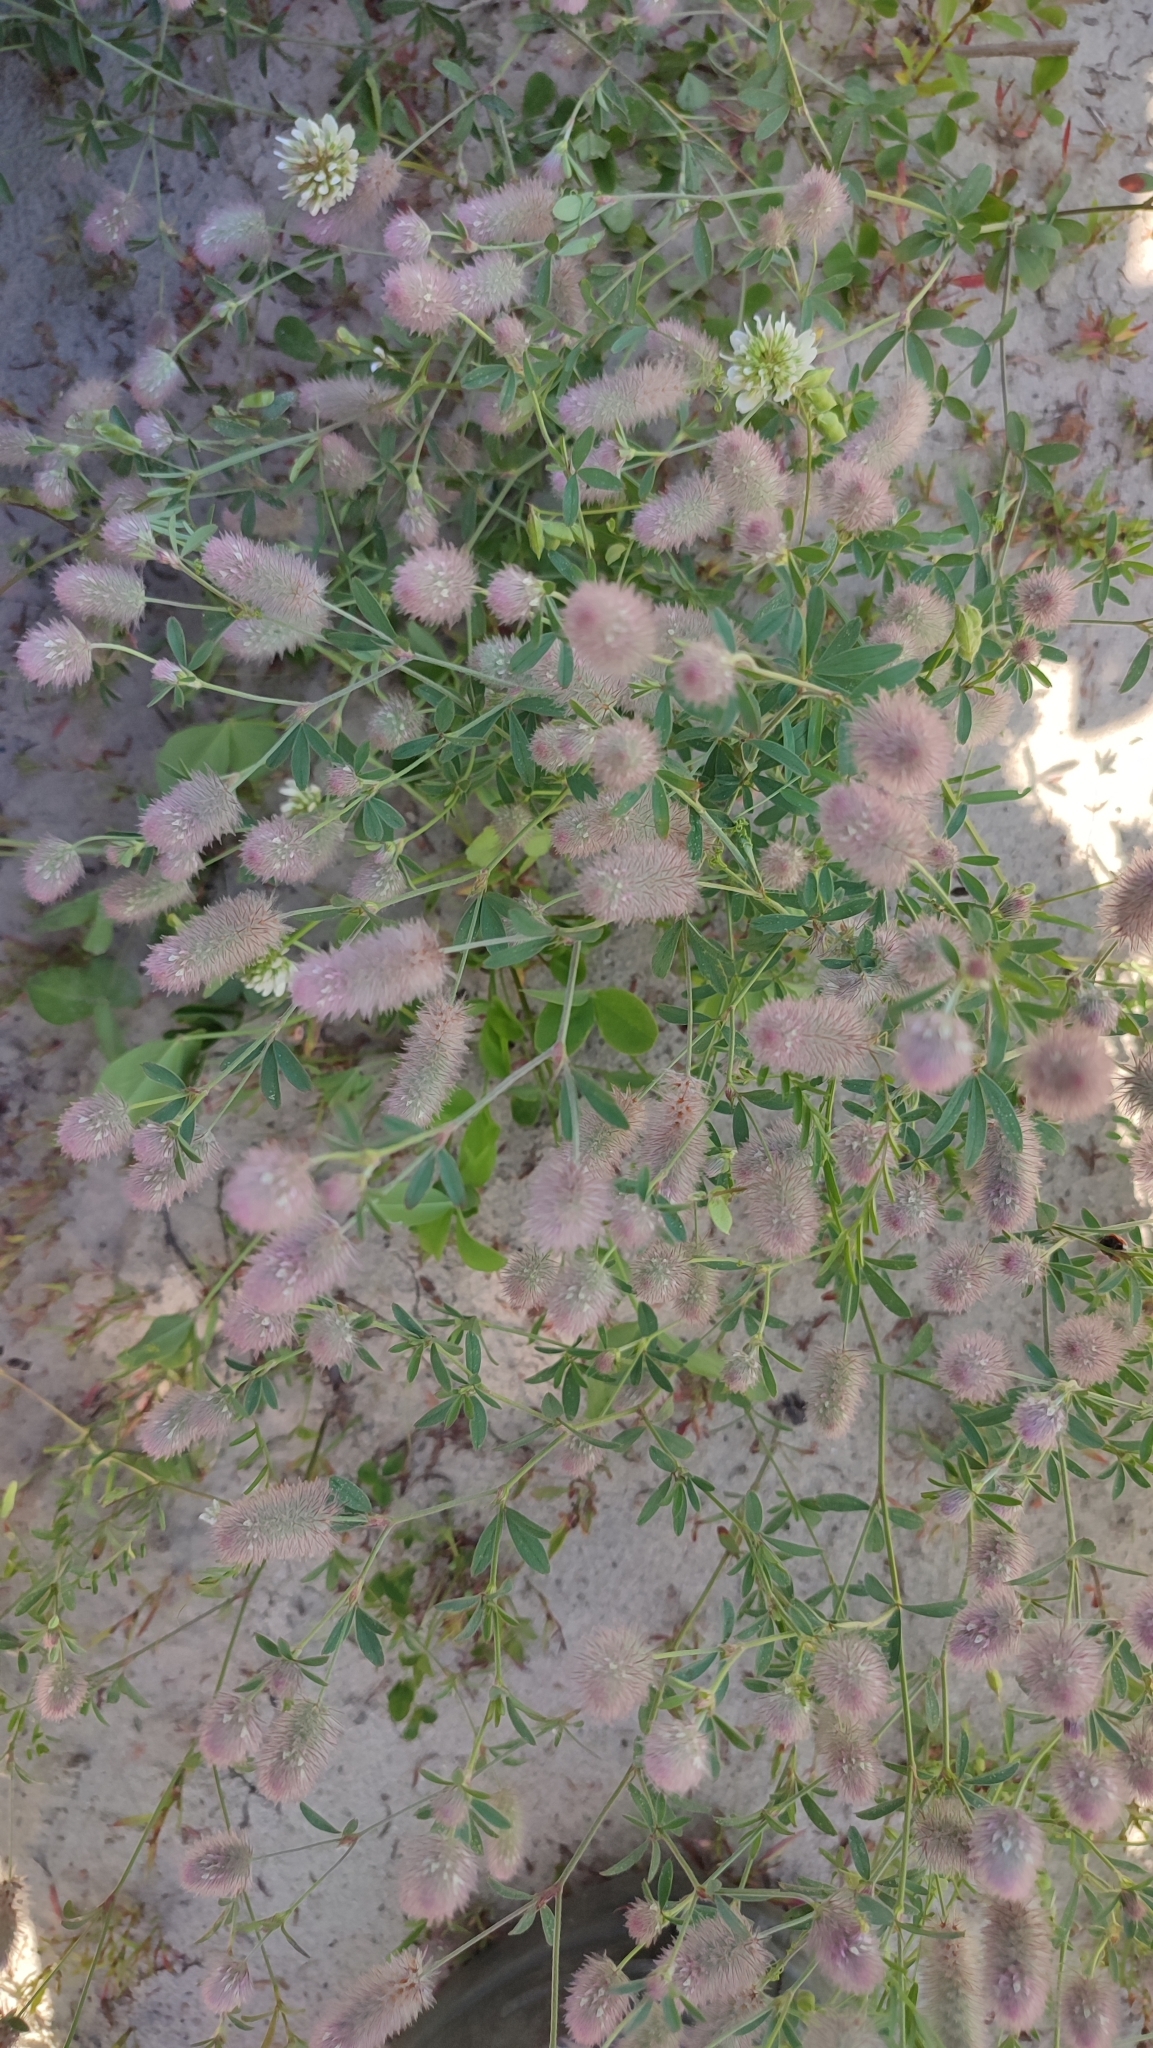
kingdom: Plantae
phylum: Tracheophyta
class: Magnoliopsida
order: Fabales
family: Fabaceae
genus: Trifolium
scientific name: Trifolium arvense
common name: Hare's-foot clover
